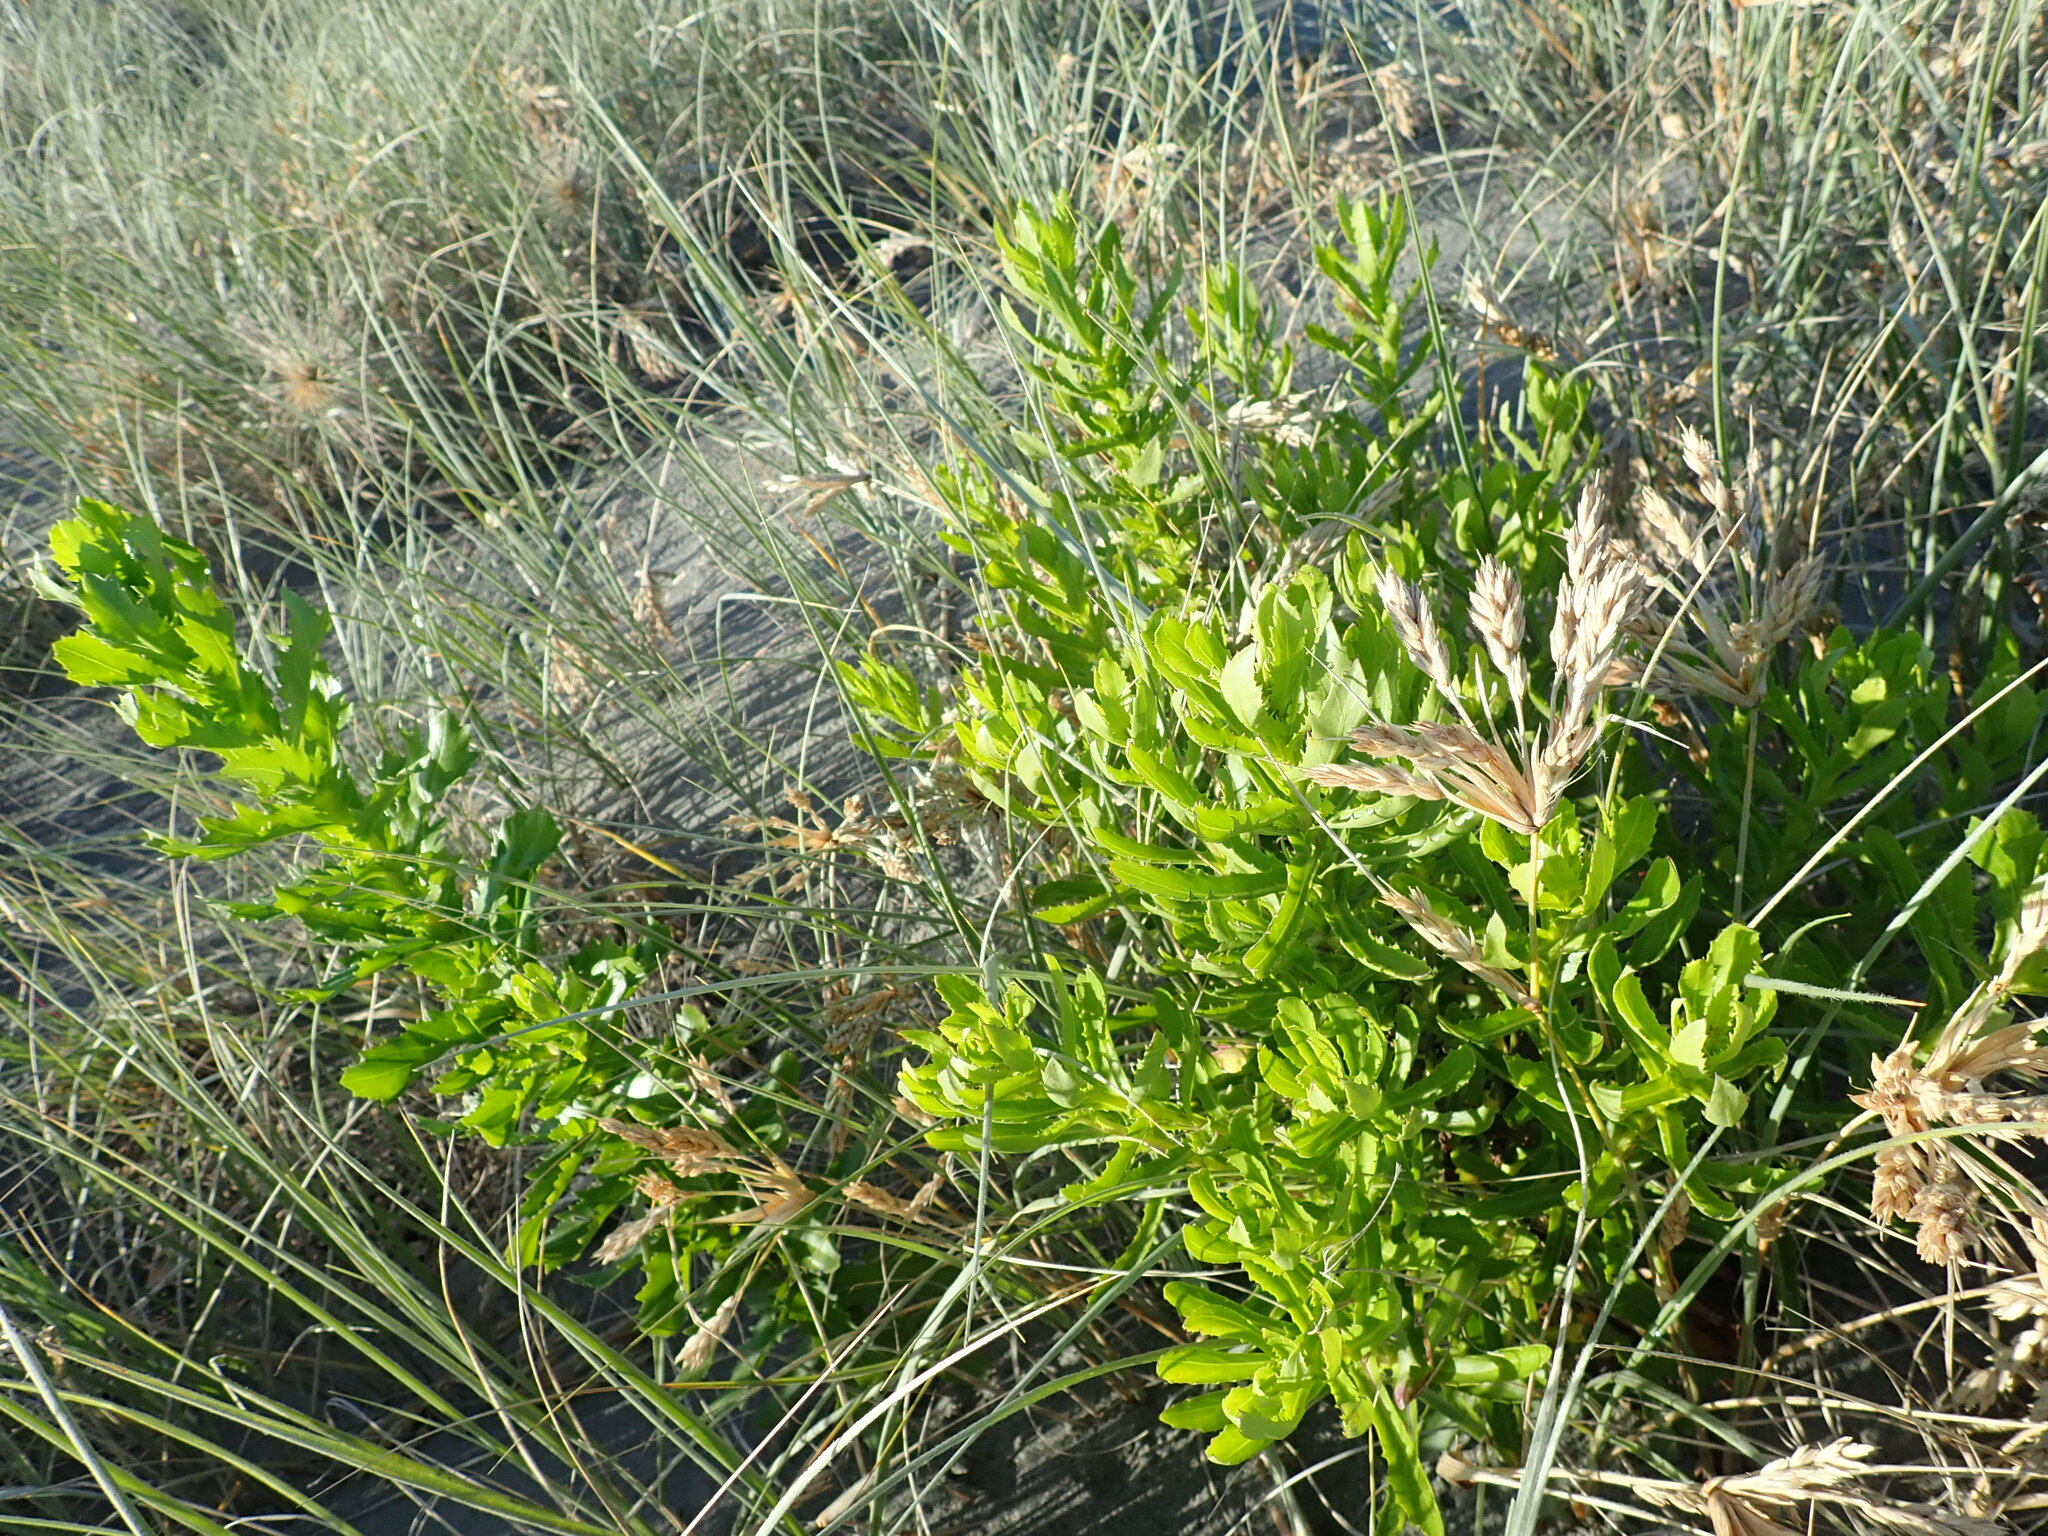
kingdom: Plantae
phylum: Tracheophyta
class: Magnoliopsida
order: Asterales
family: Asteraceae
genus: Senecio
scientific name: Senecio glastifolius
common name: Woad-leaved ragwort
